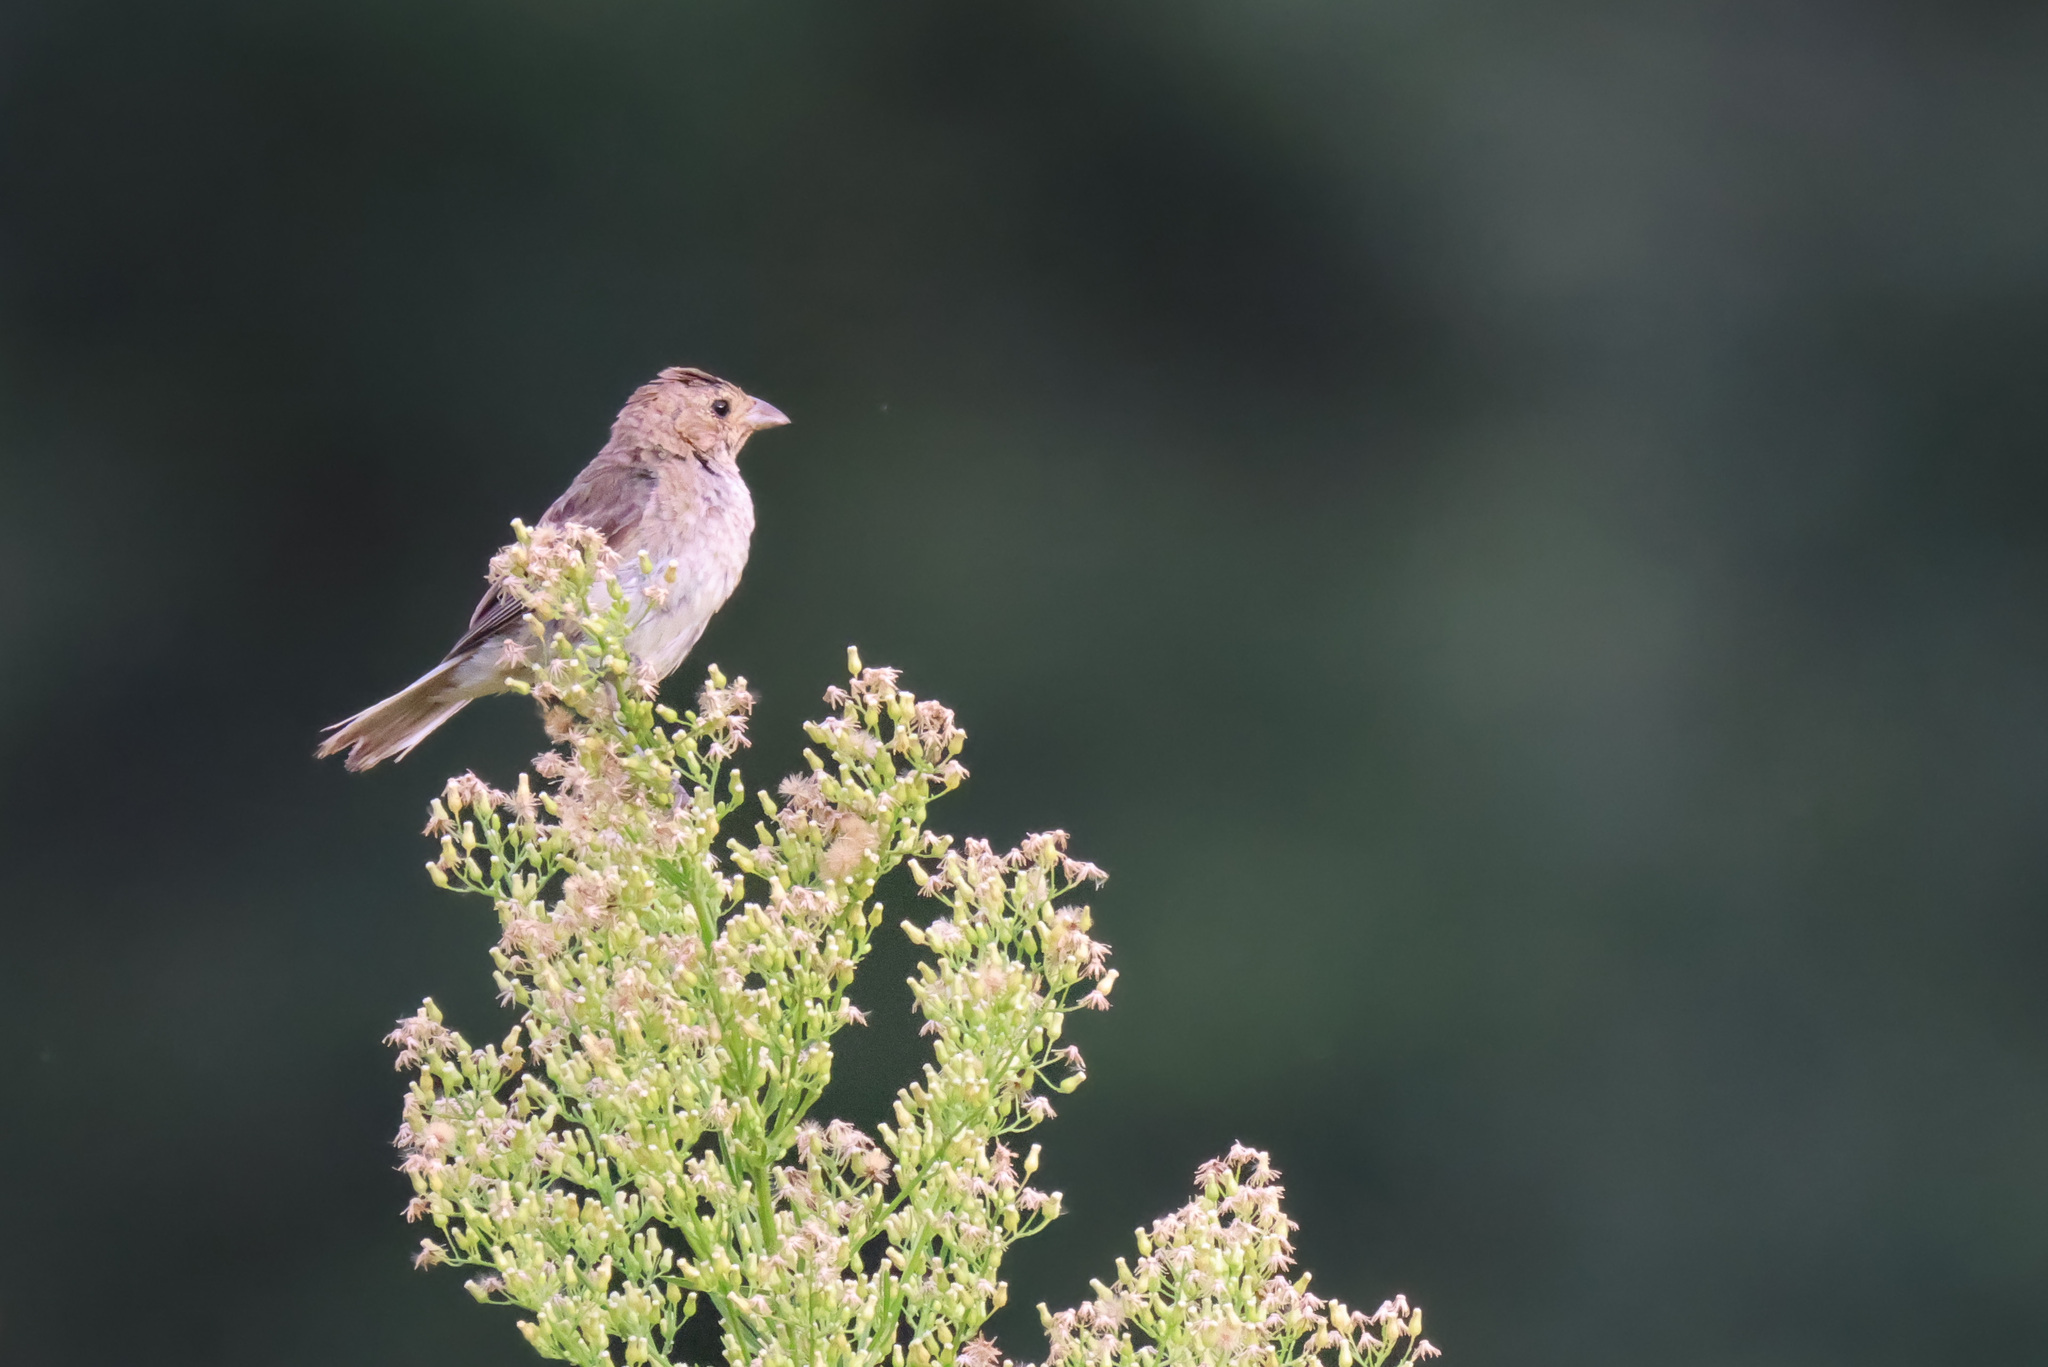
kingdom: Animalia
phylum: Chordata
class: Aves
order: Passeriformes
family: Cardinalidae
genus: Passerina
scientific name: Passerina cyanea
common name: Indigo bunting
